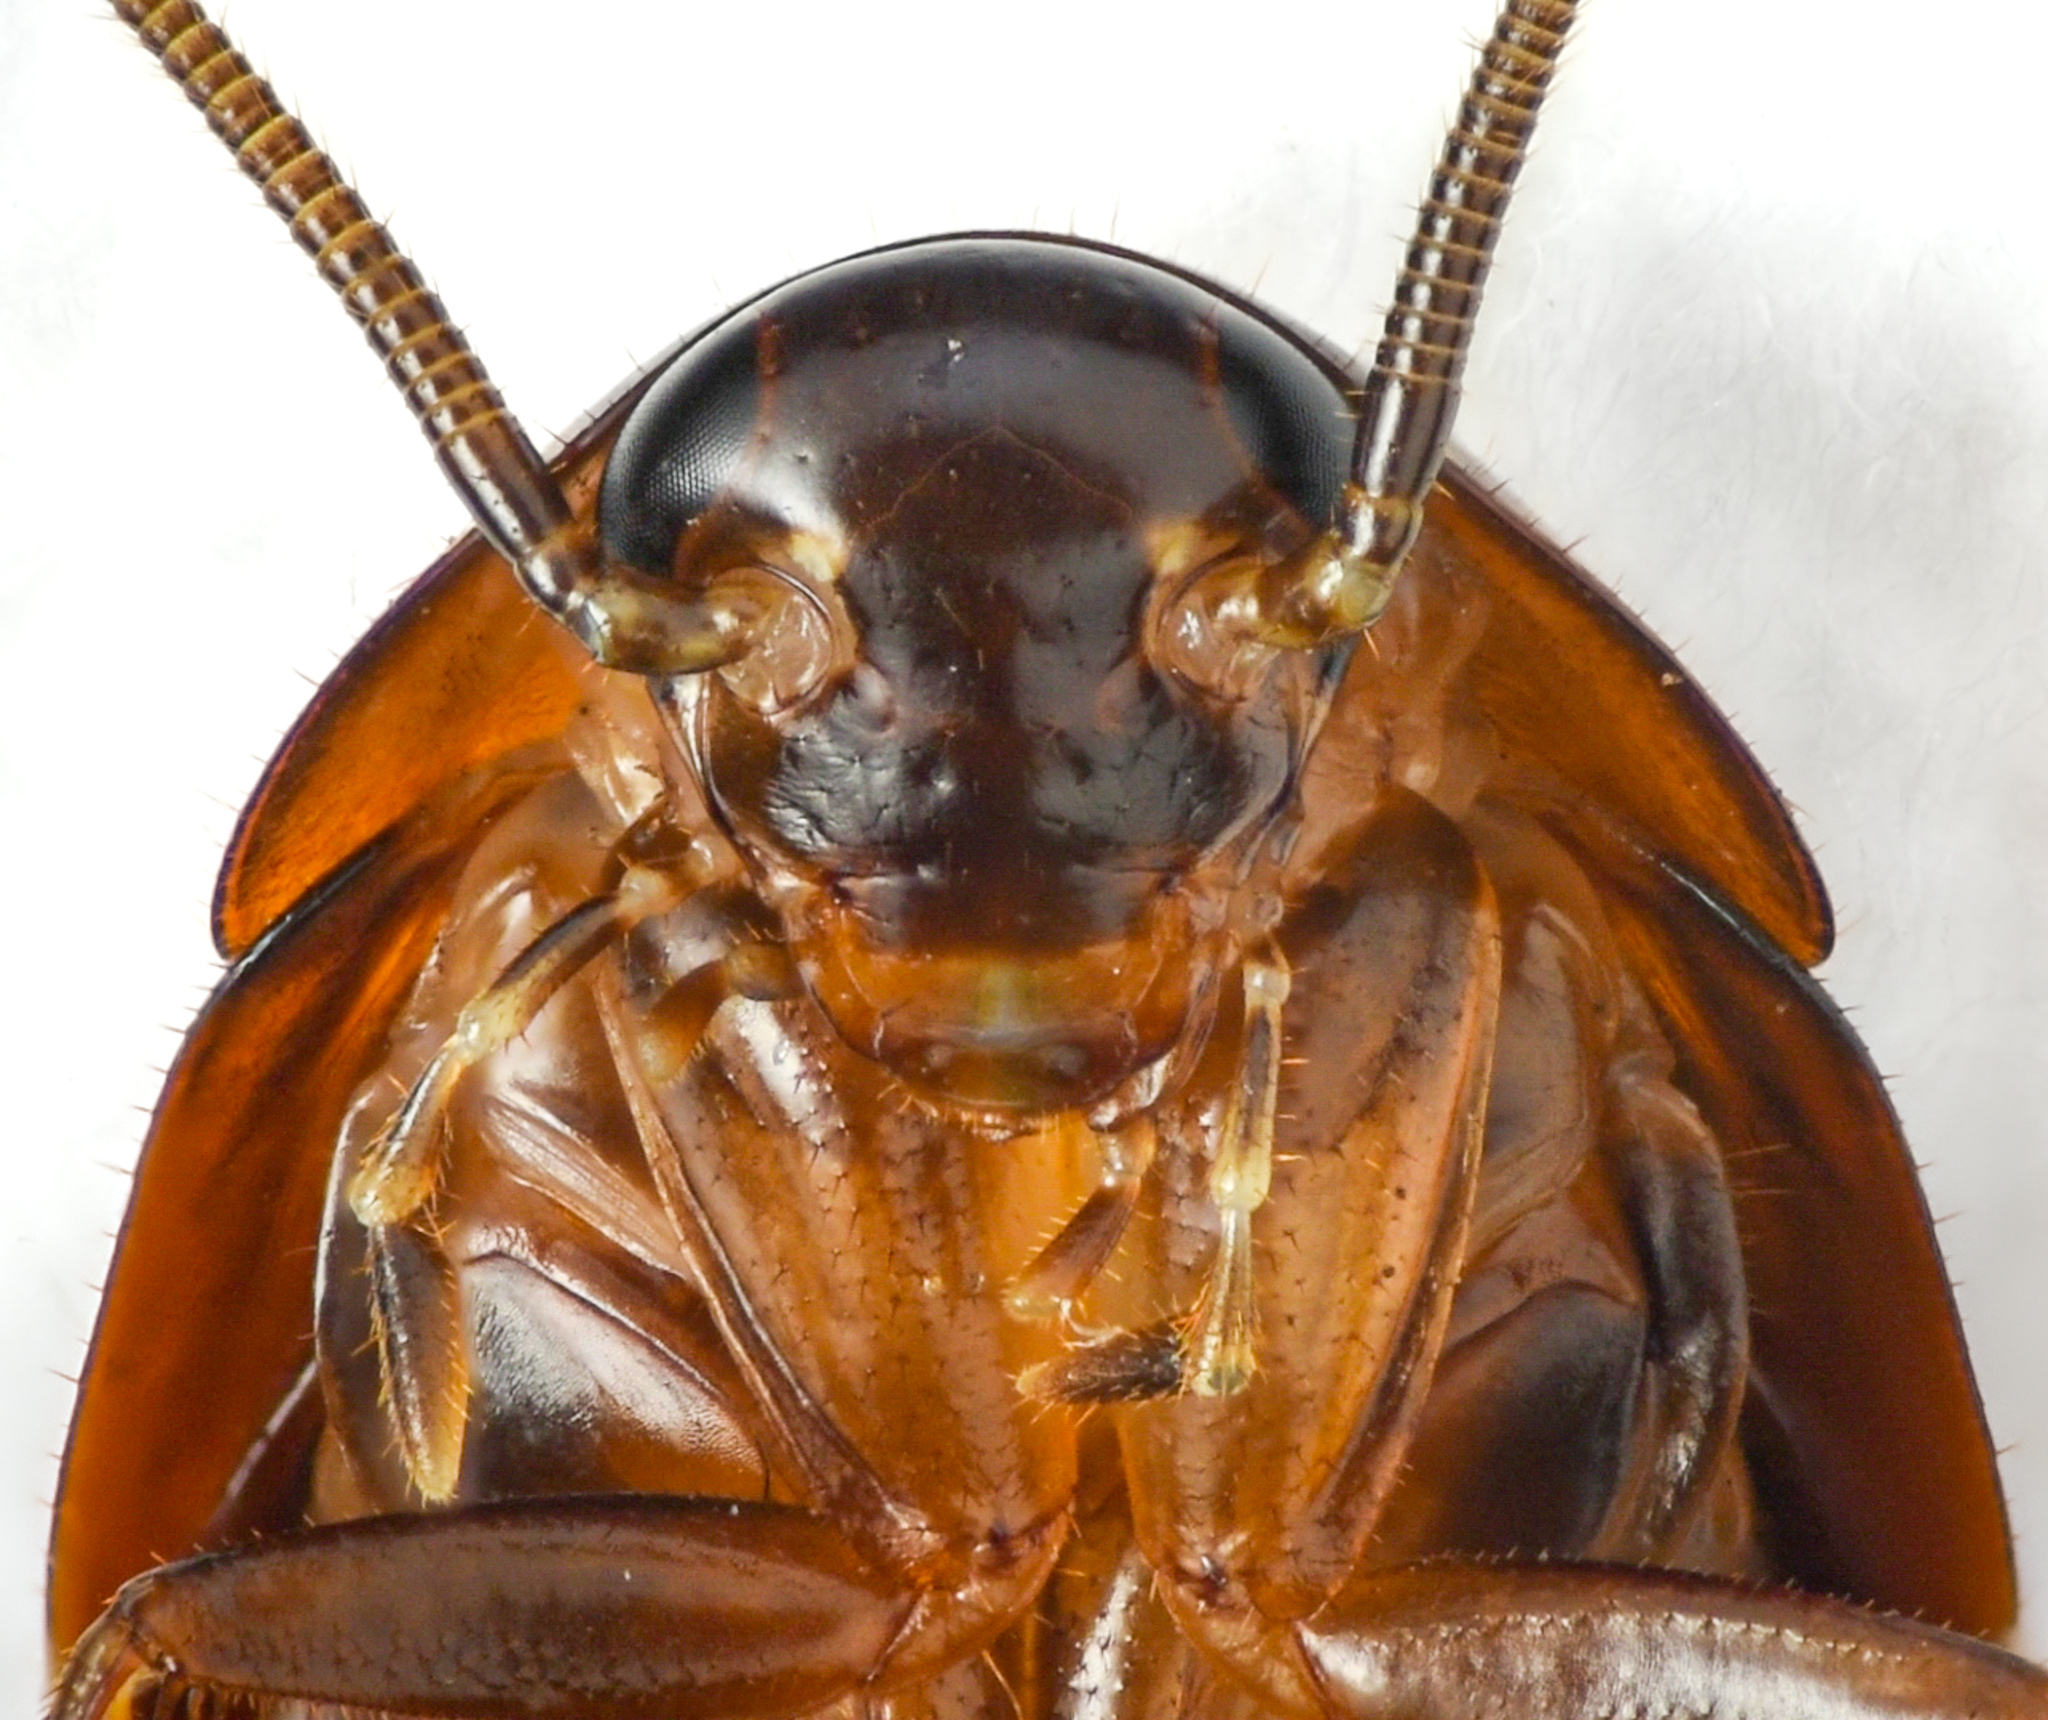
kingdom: Animalia
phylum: Arthropoda
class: Insecta
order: Blattodea
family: Ectobiidae
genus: Parcoblatta
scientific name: Parcoblatta americana
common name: Western wood cockroach
